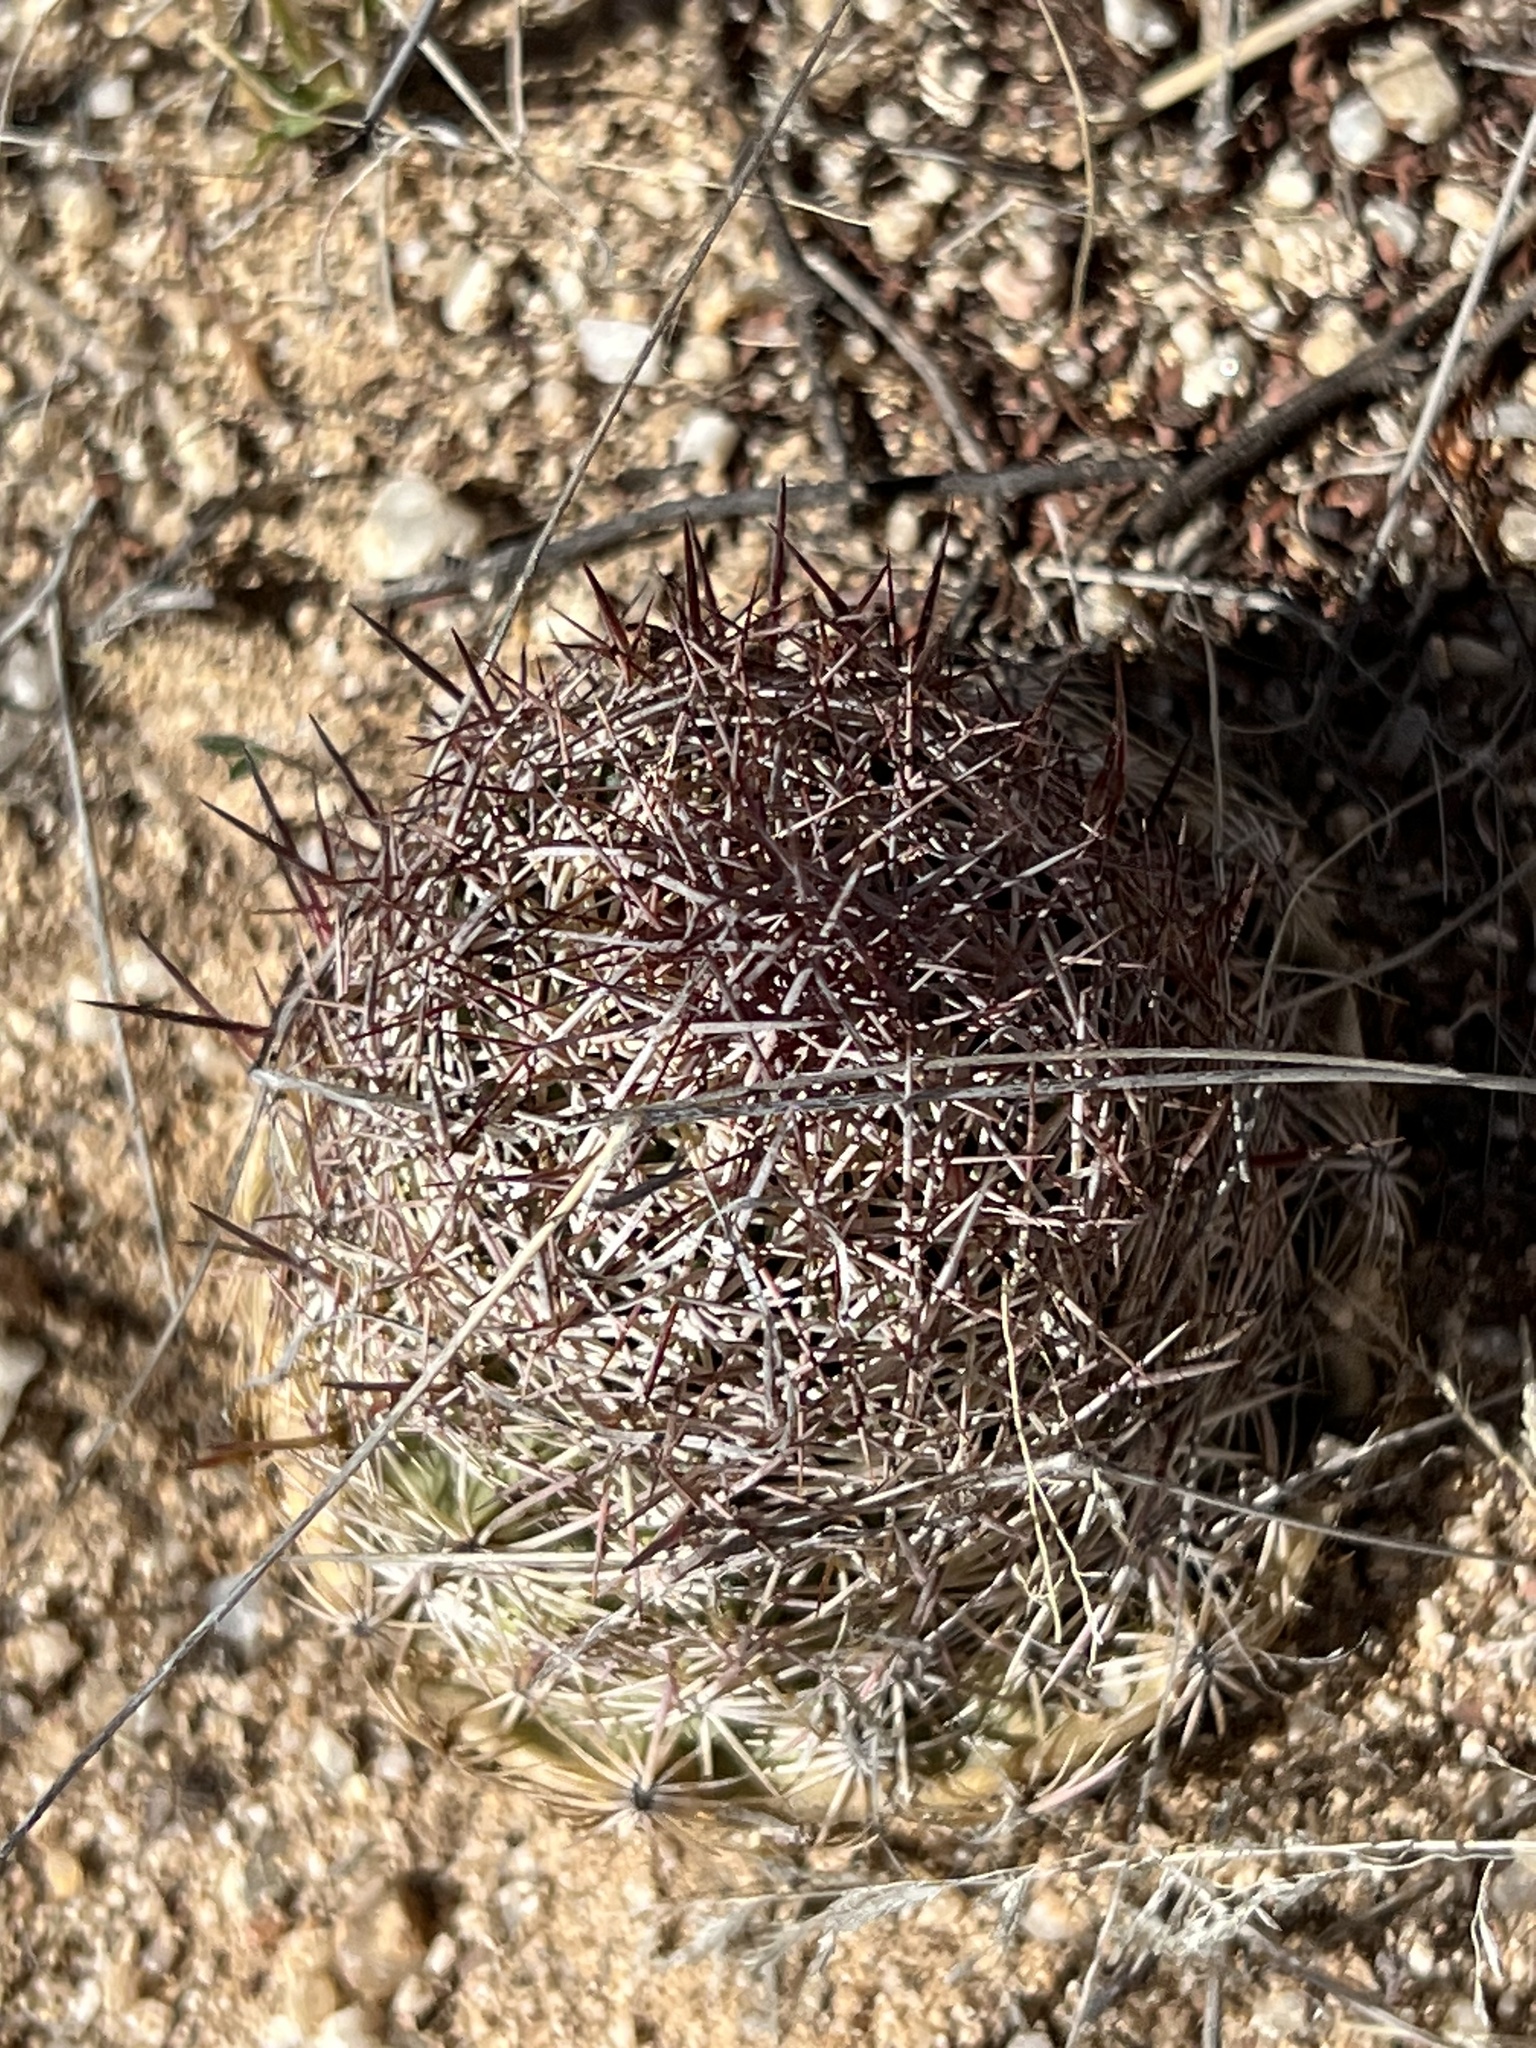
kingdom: Plantae
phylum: Tracheophyta
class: Magnoliopsida
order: Caryophyllales
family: Cactaceae
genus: Sclerocactus
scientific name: Sclerocactus johnsonii
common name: Eight-spine fishhook cactus
